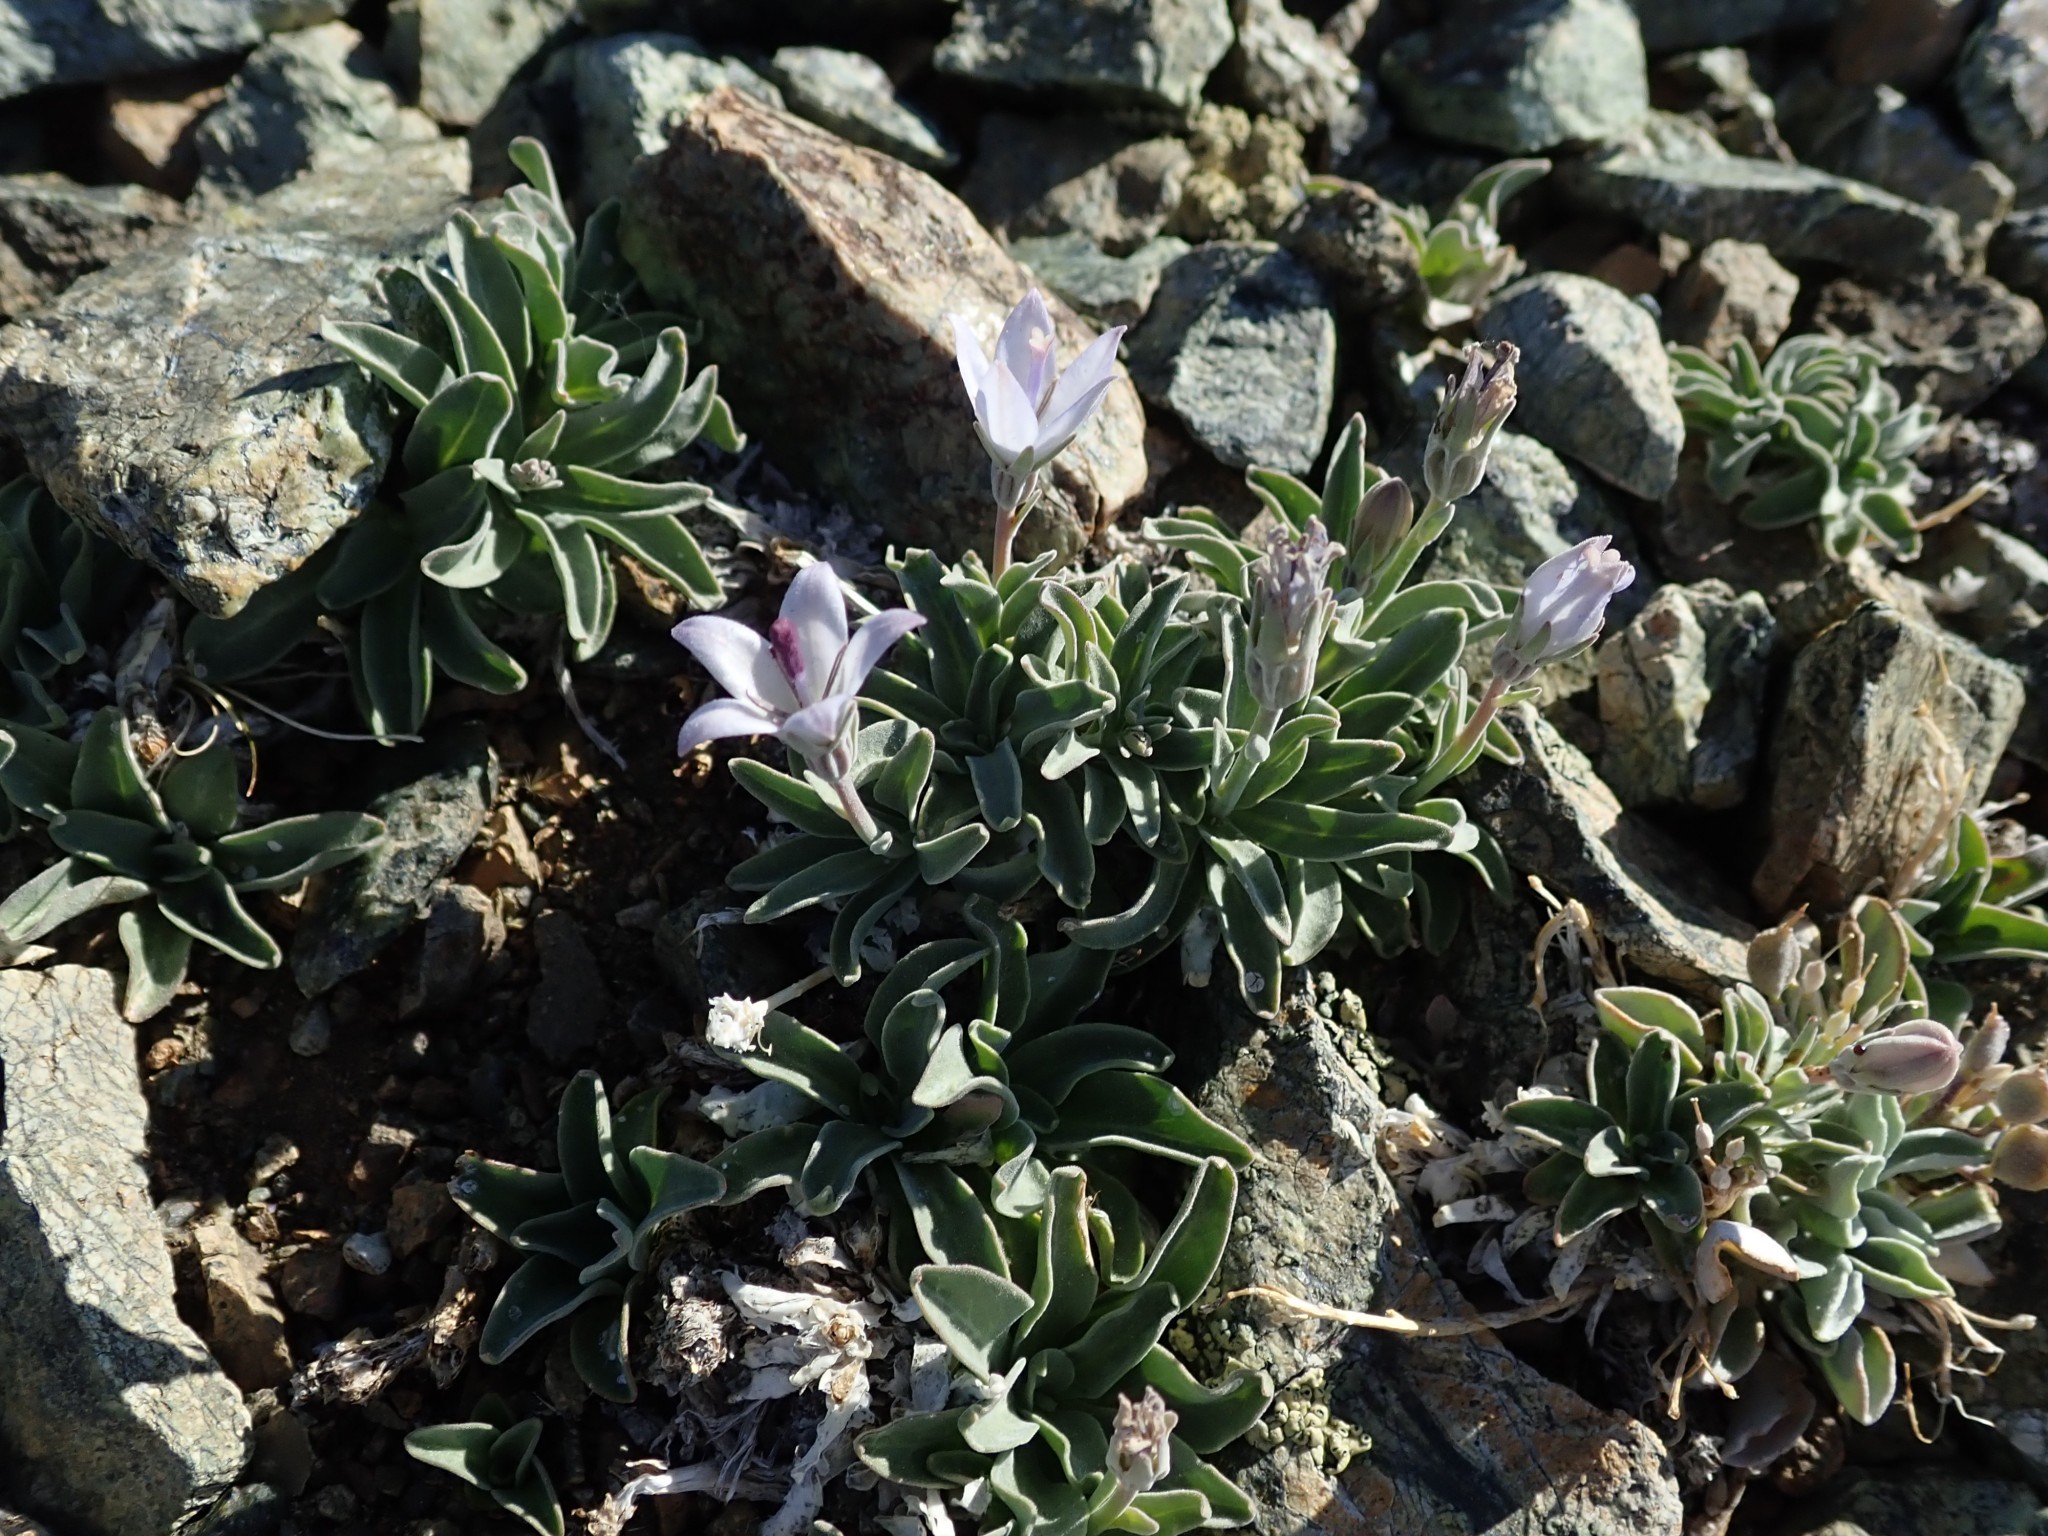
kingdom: Plantae
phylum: Tracheophyta
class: Magnoliopsida
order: Asterales
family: Campanulaceae
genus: Campanula
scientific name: Campanula scabrella
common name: Downy alpine bellflower
